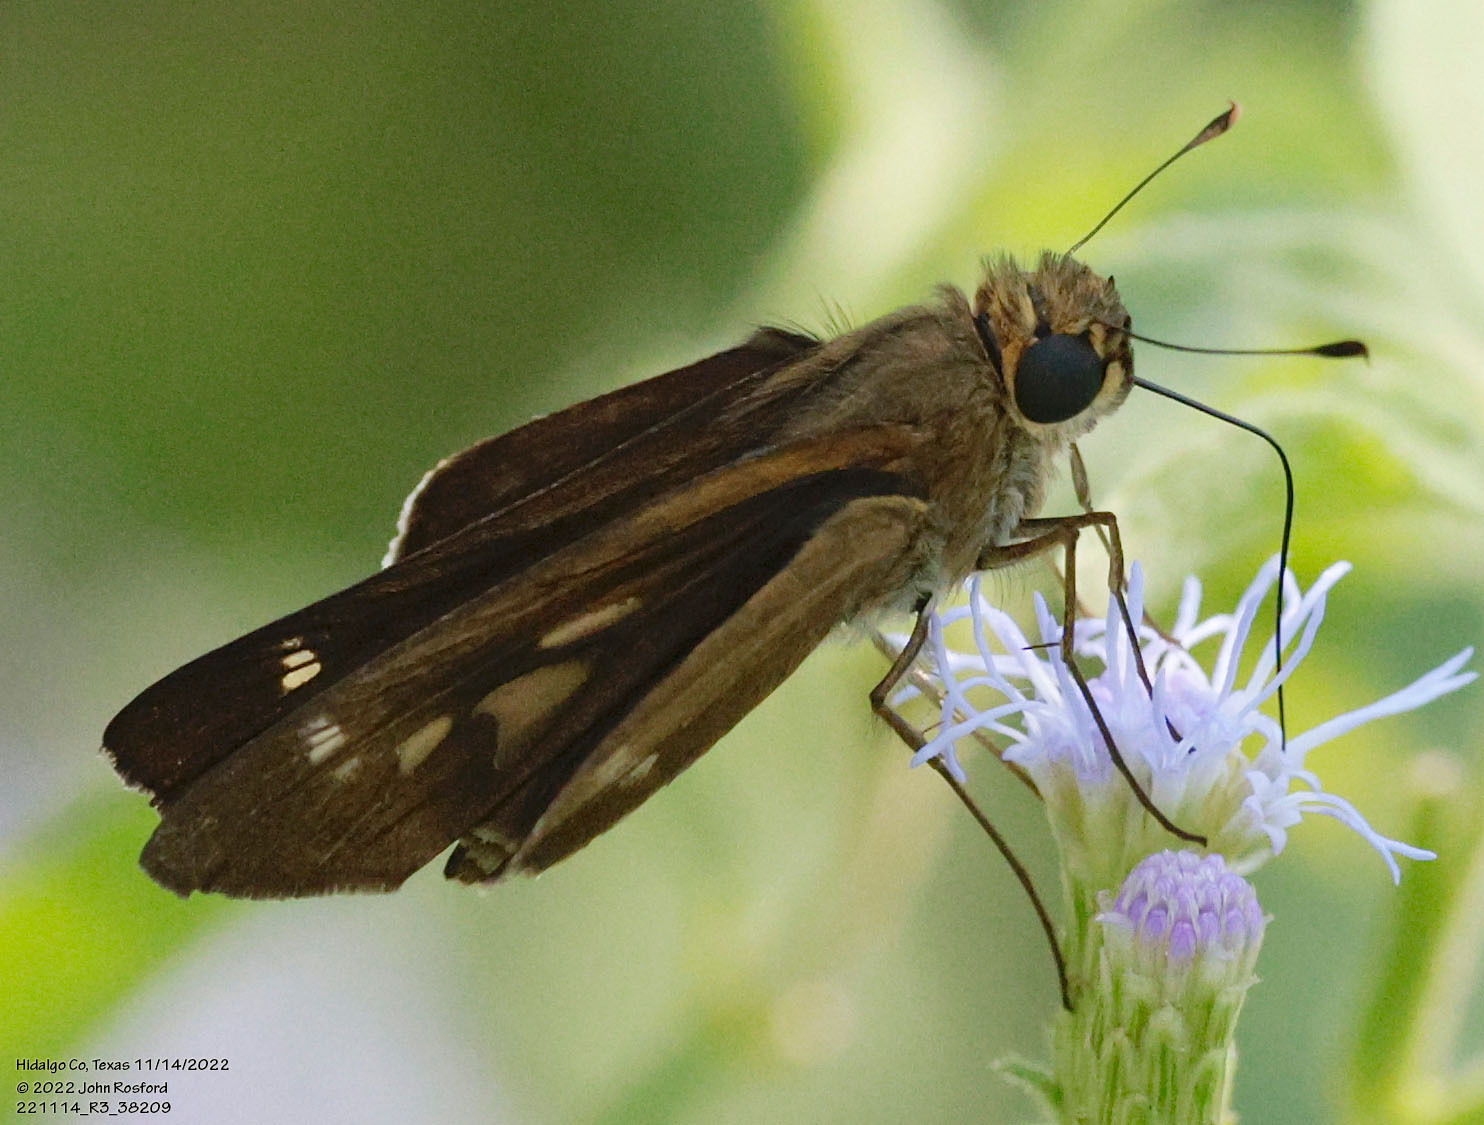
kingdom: Animalia
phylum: Arthropoda
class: Insecta
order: Lepidoptera
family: Hesperiidae
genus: Turesis
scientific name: Turesis lucas
